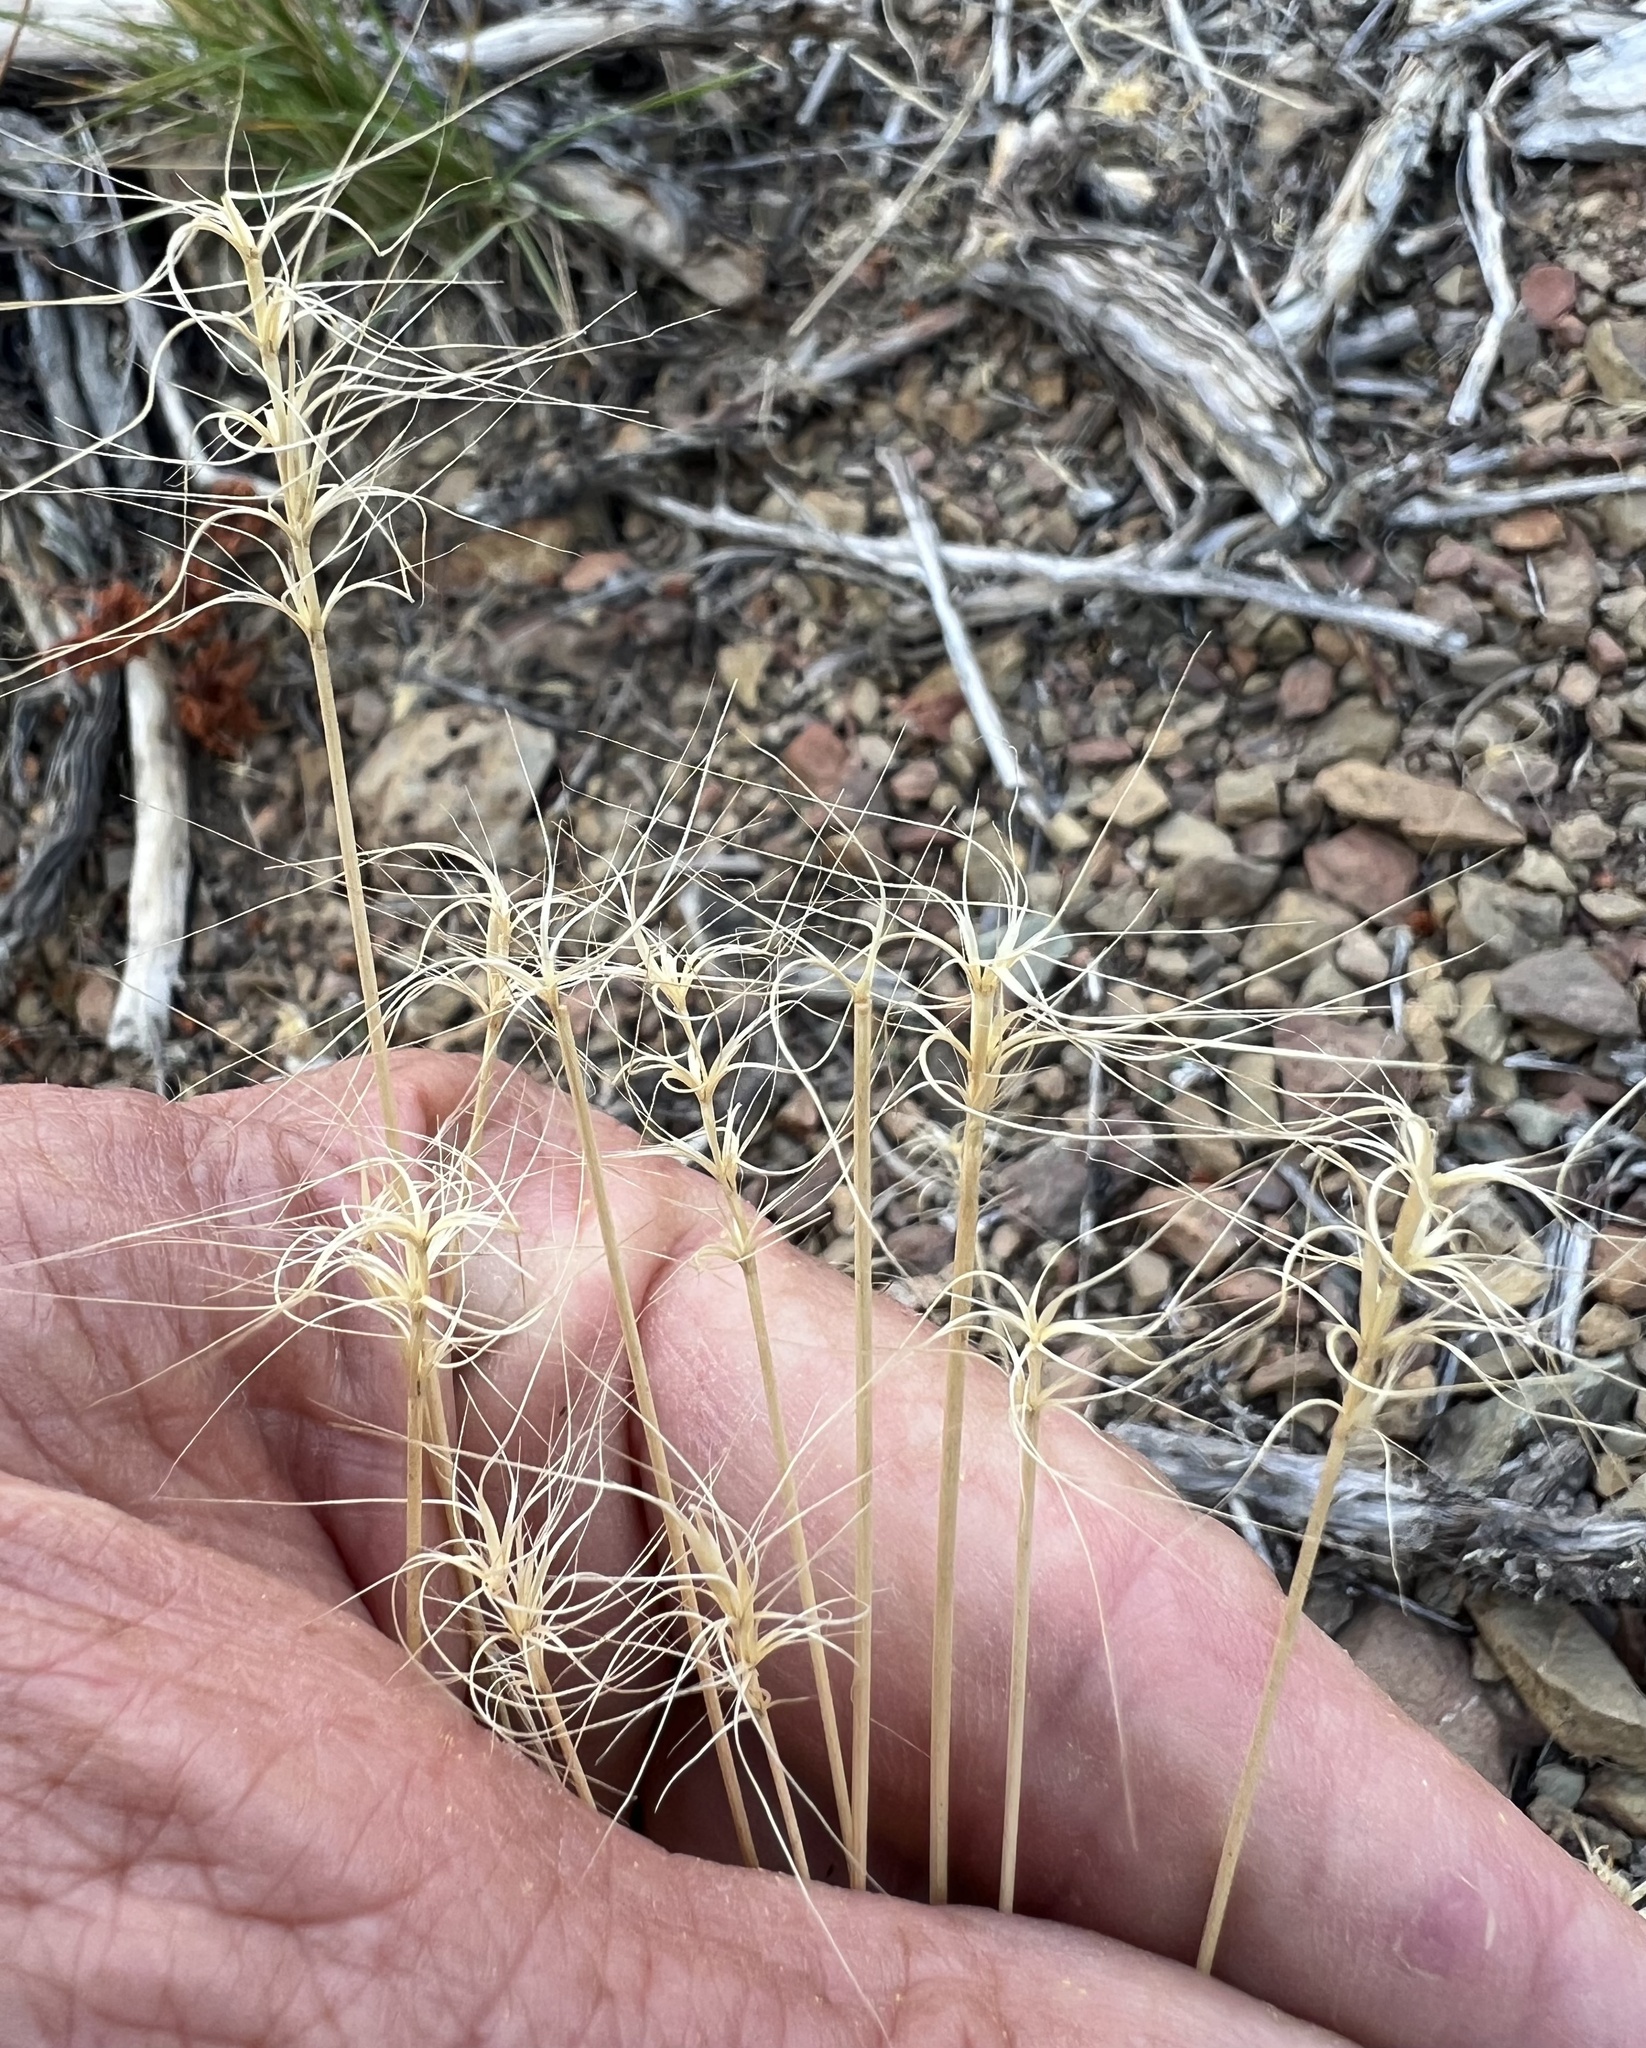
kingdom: Plantae
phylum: Tracheophyta
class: Liliopsida
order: Poales
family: Poaceae
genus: Elymus
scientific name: Elymus elymoides
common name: Bottlebrush squirreltail
